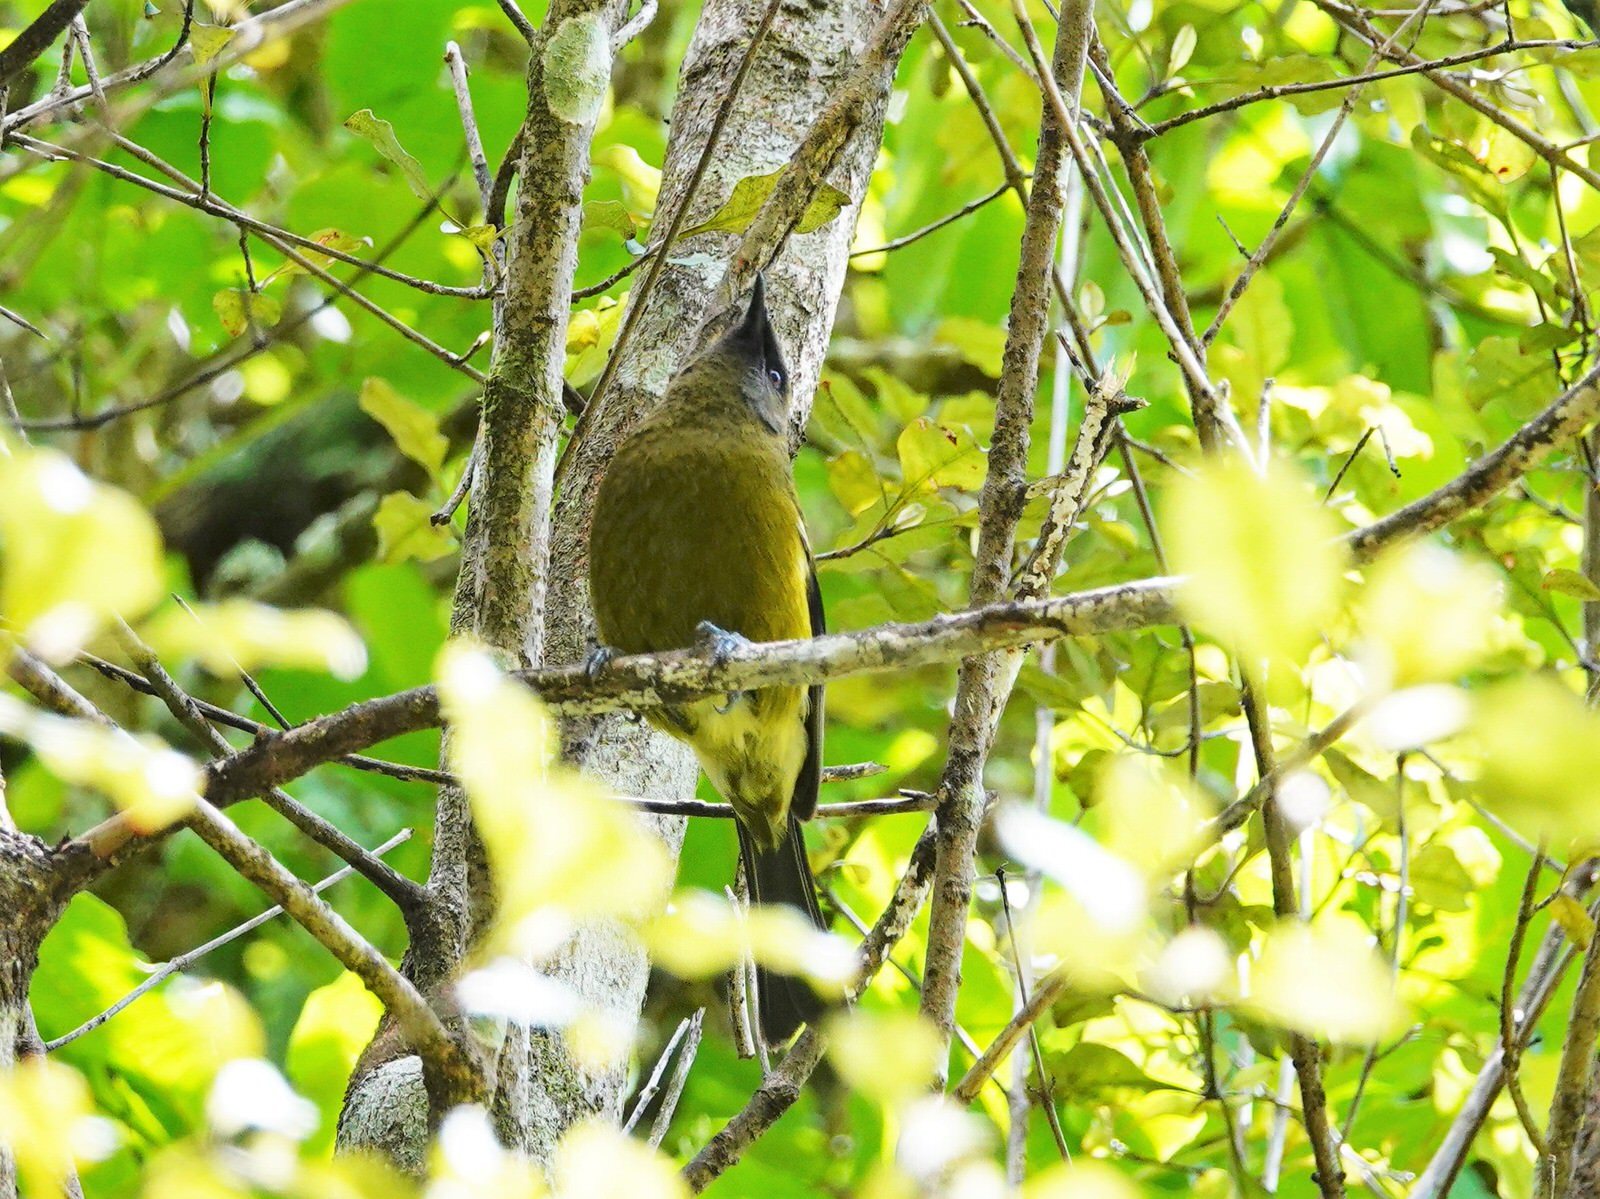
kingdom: Animalia
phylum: Chordata
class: Aves
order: Passeriformes
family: Meliphagidae
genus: Anthornis
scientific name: Anthornis melanura
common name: New zealand bellbird
